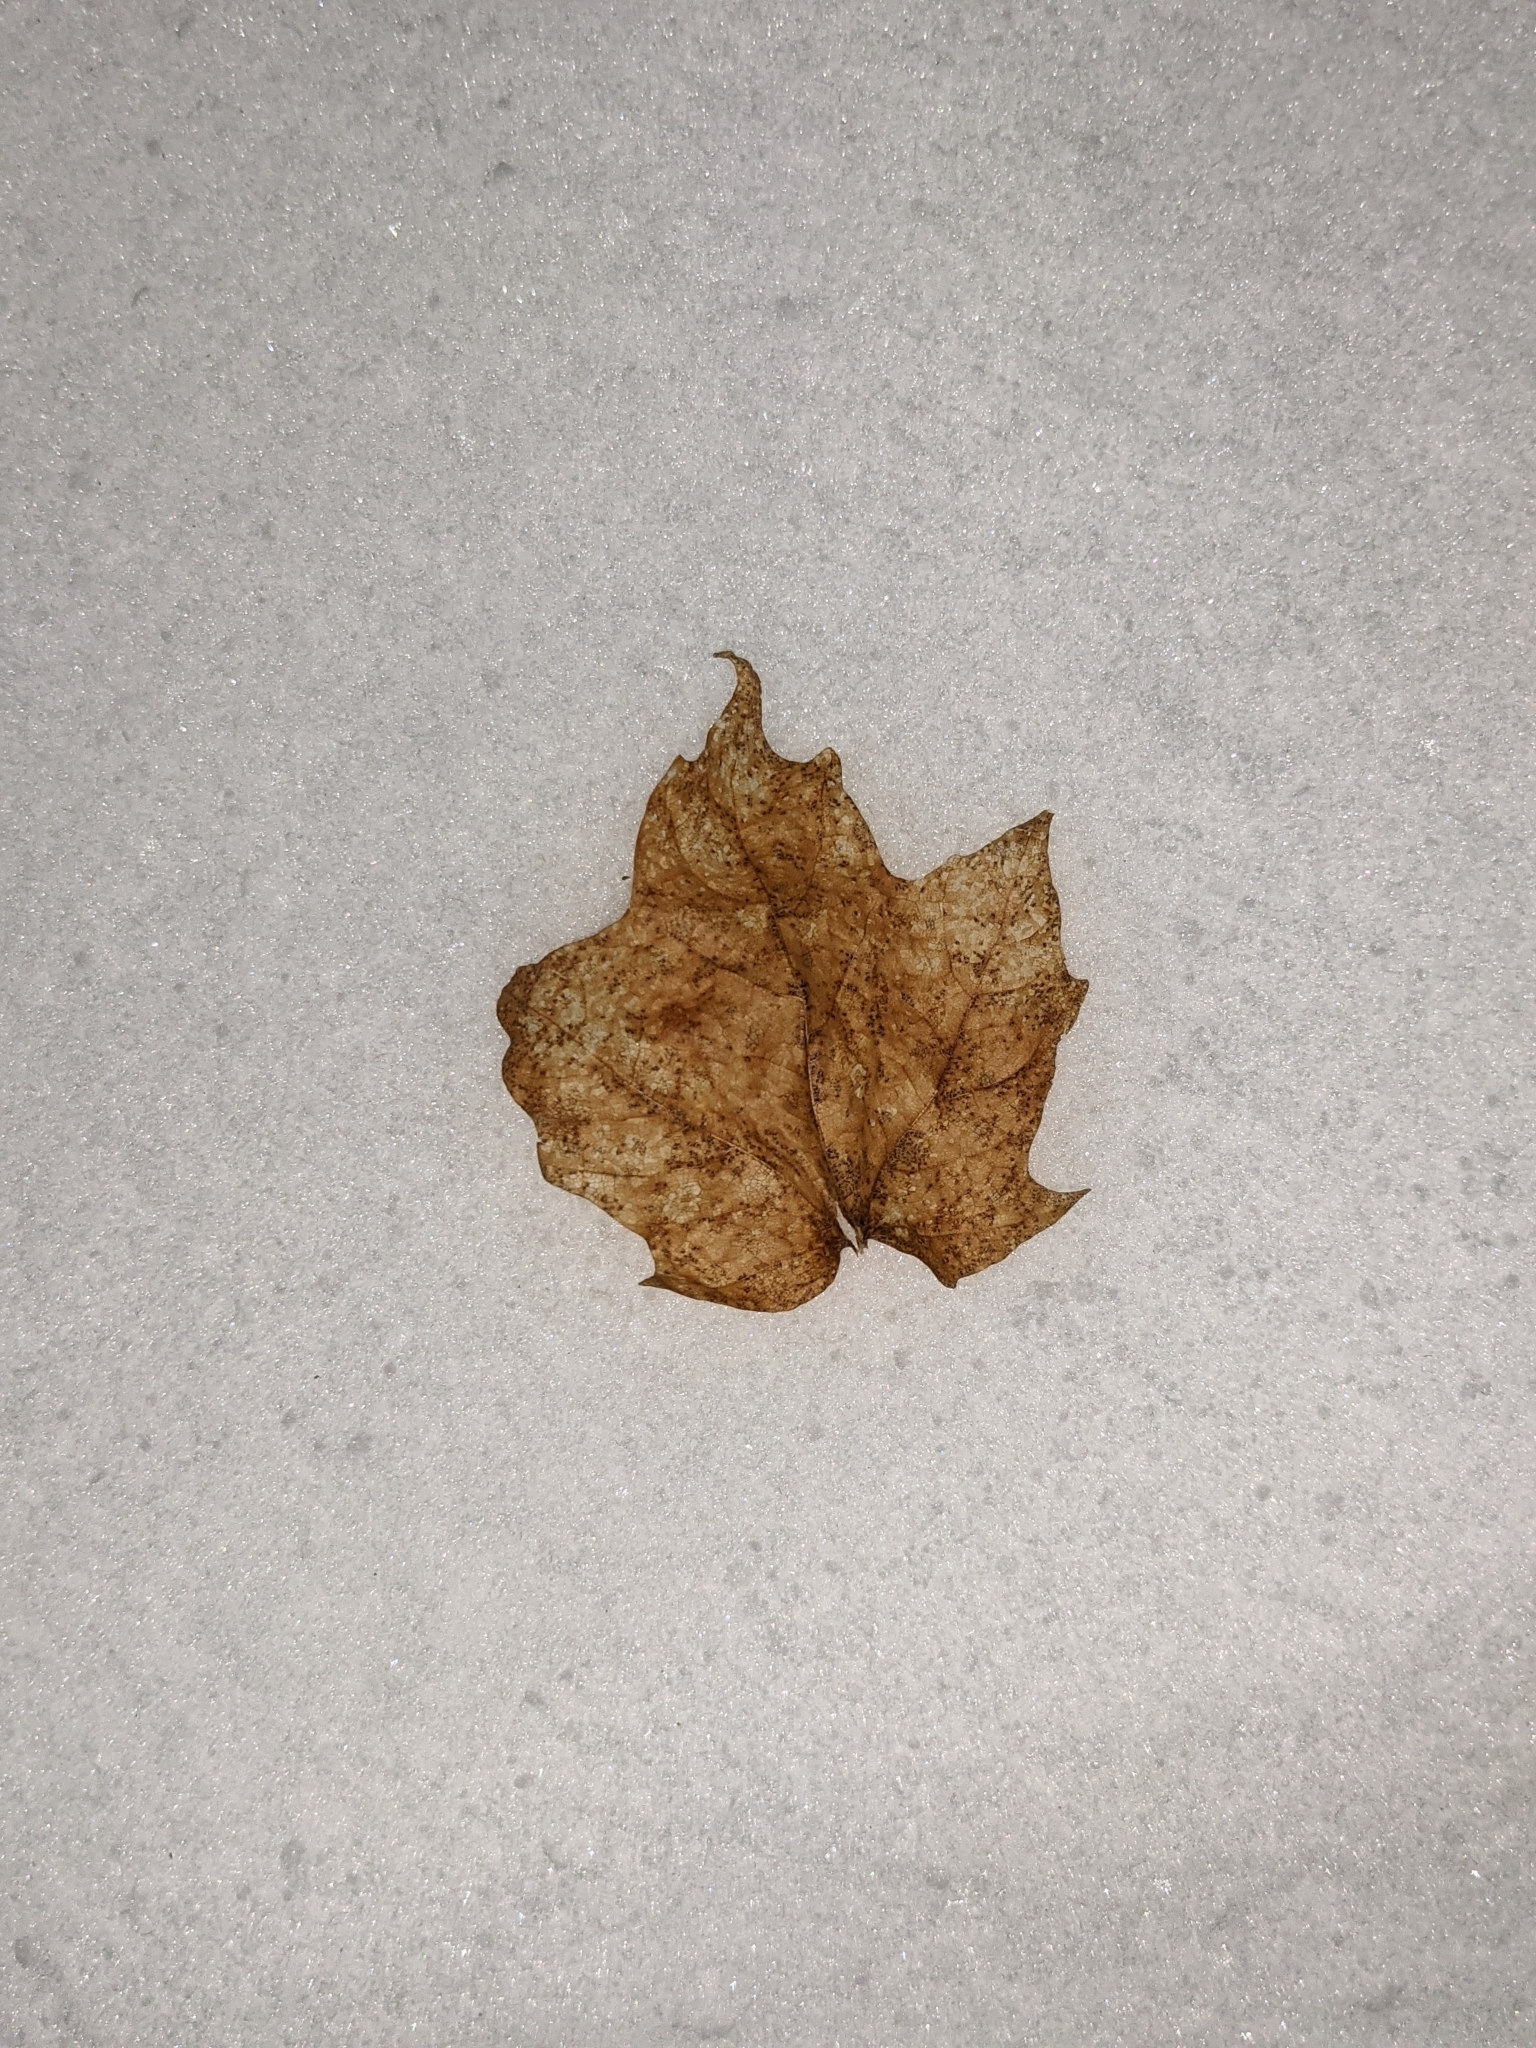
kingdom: Plantae
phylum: Tracheophyta
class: Magnoliopsida
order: Sapindales
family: Sapindaceae
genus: Acer
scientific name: Acer saccharum
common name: Sugar maple
